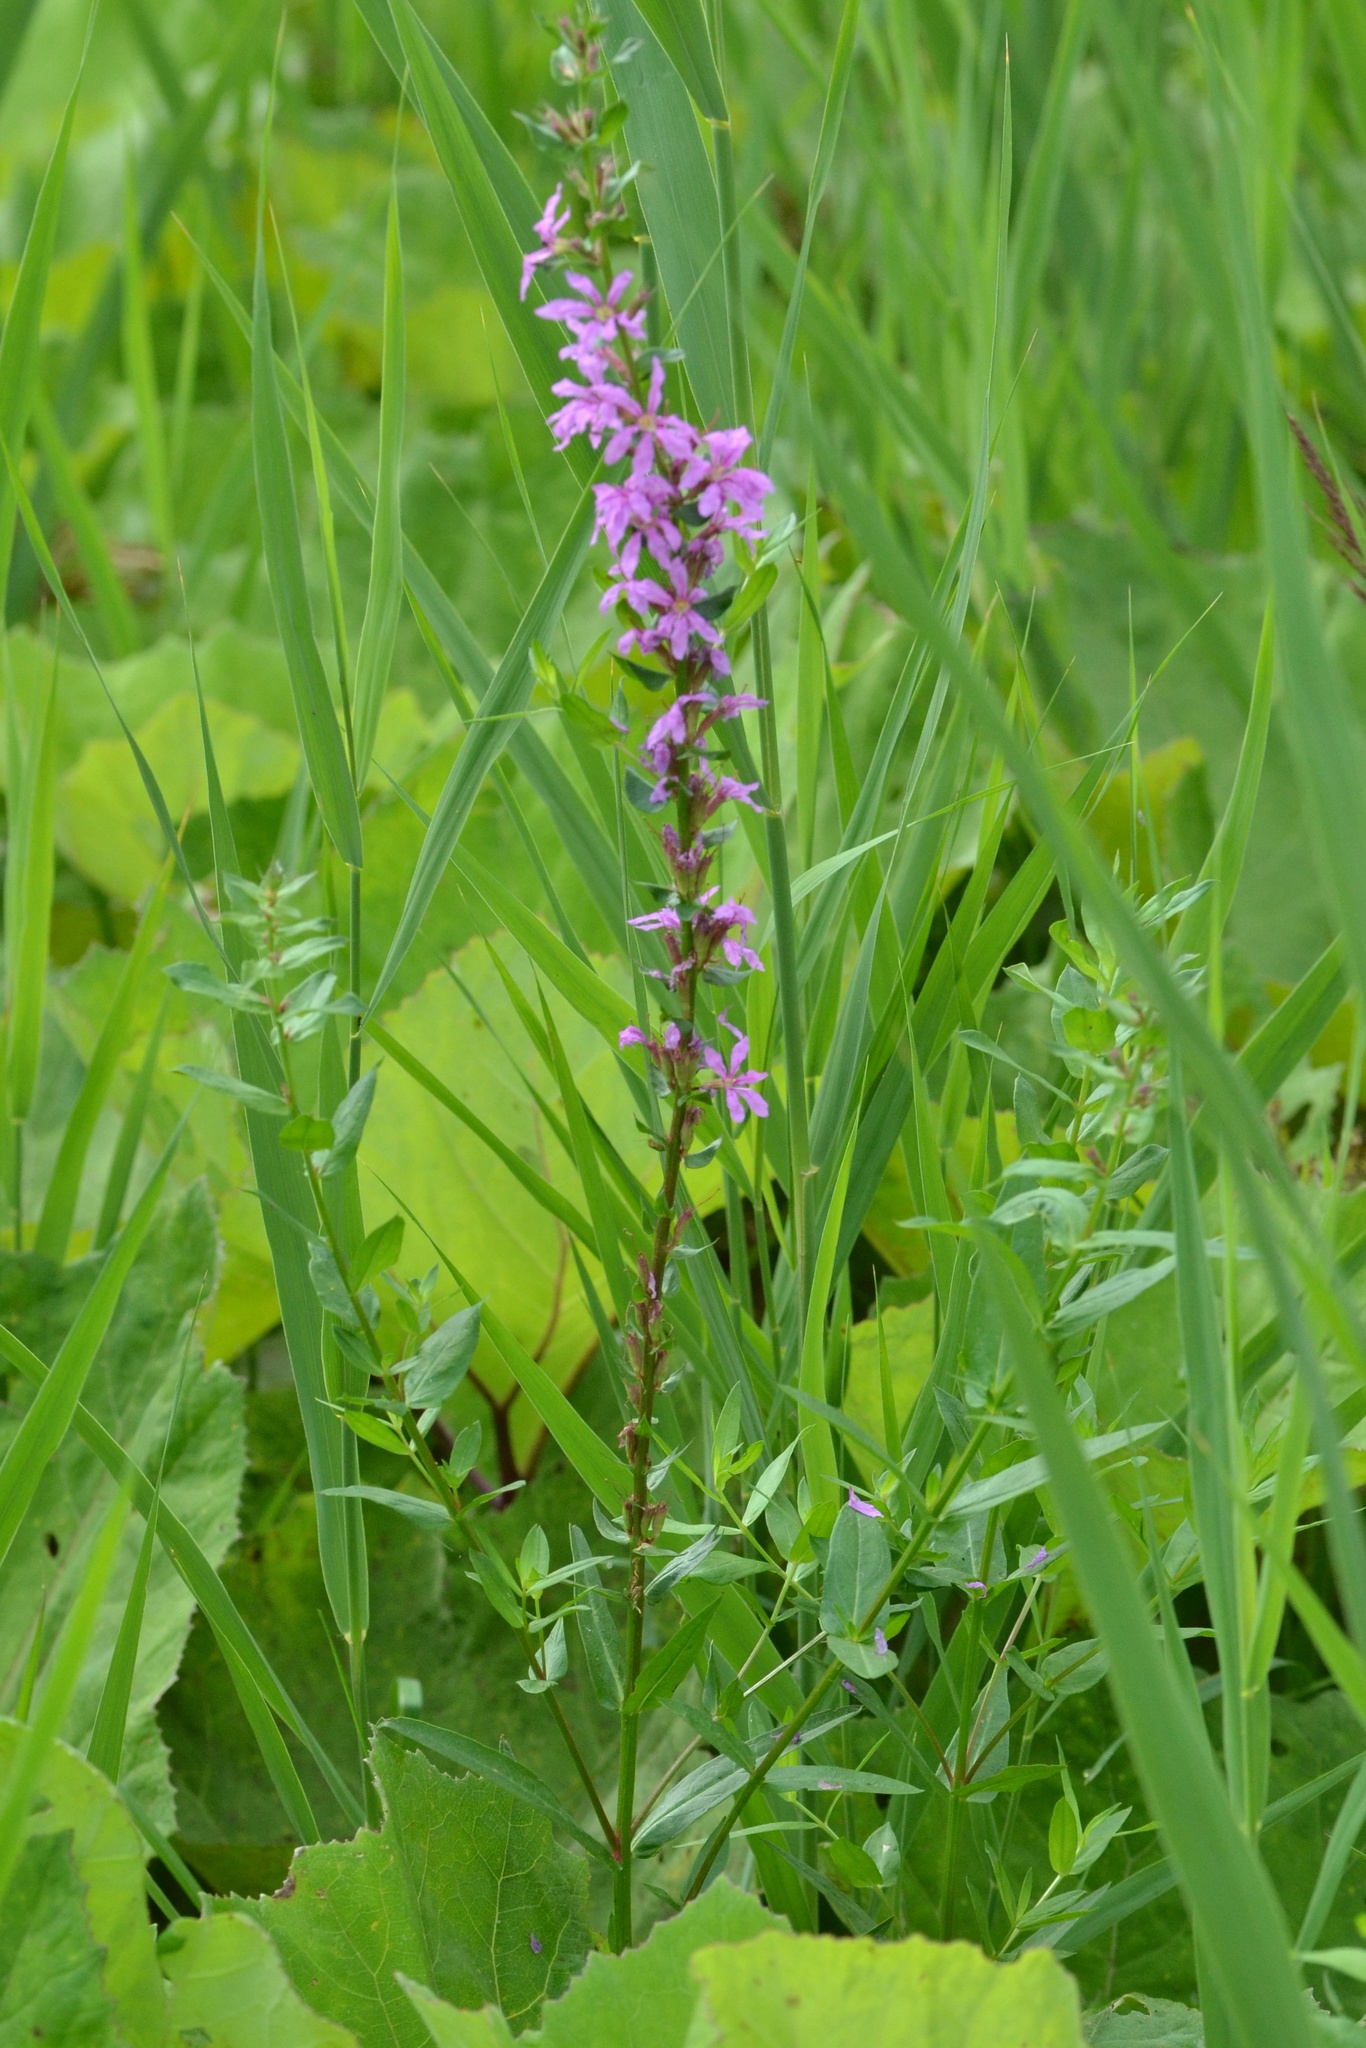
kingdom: Plantae
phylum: Tracheophyta
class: Magnoliopsida
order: Myrtales
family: Lythraceae
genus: Lythrum
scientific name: Lythrum salicaria
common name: Purple loosestrife
